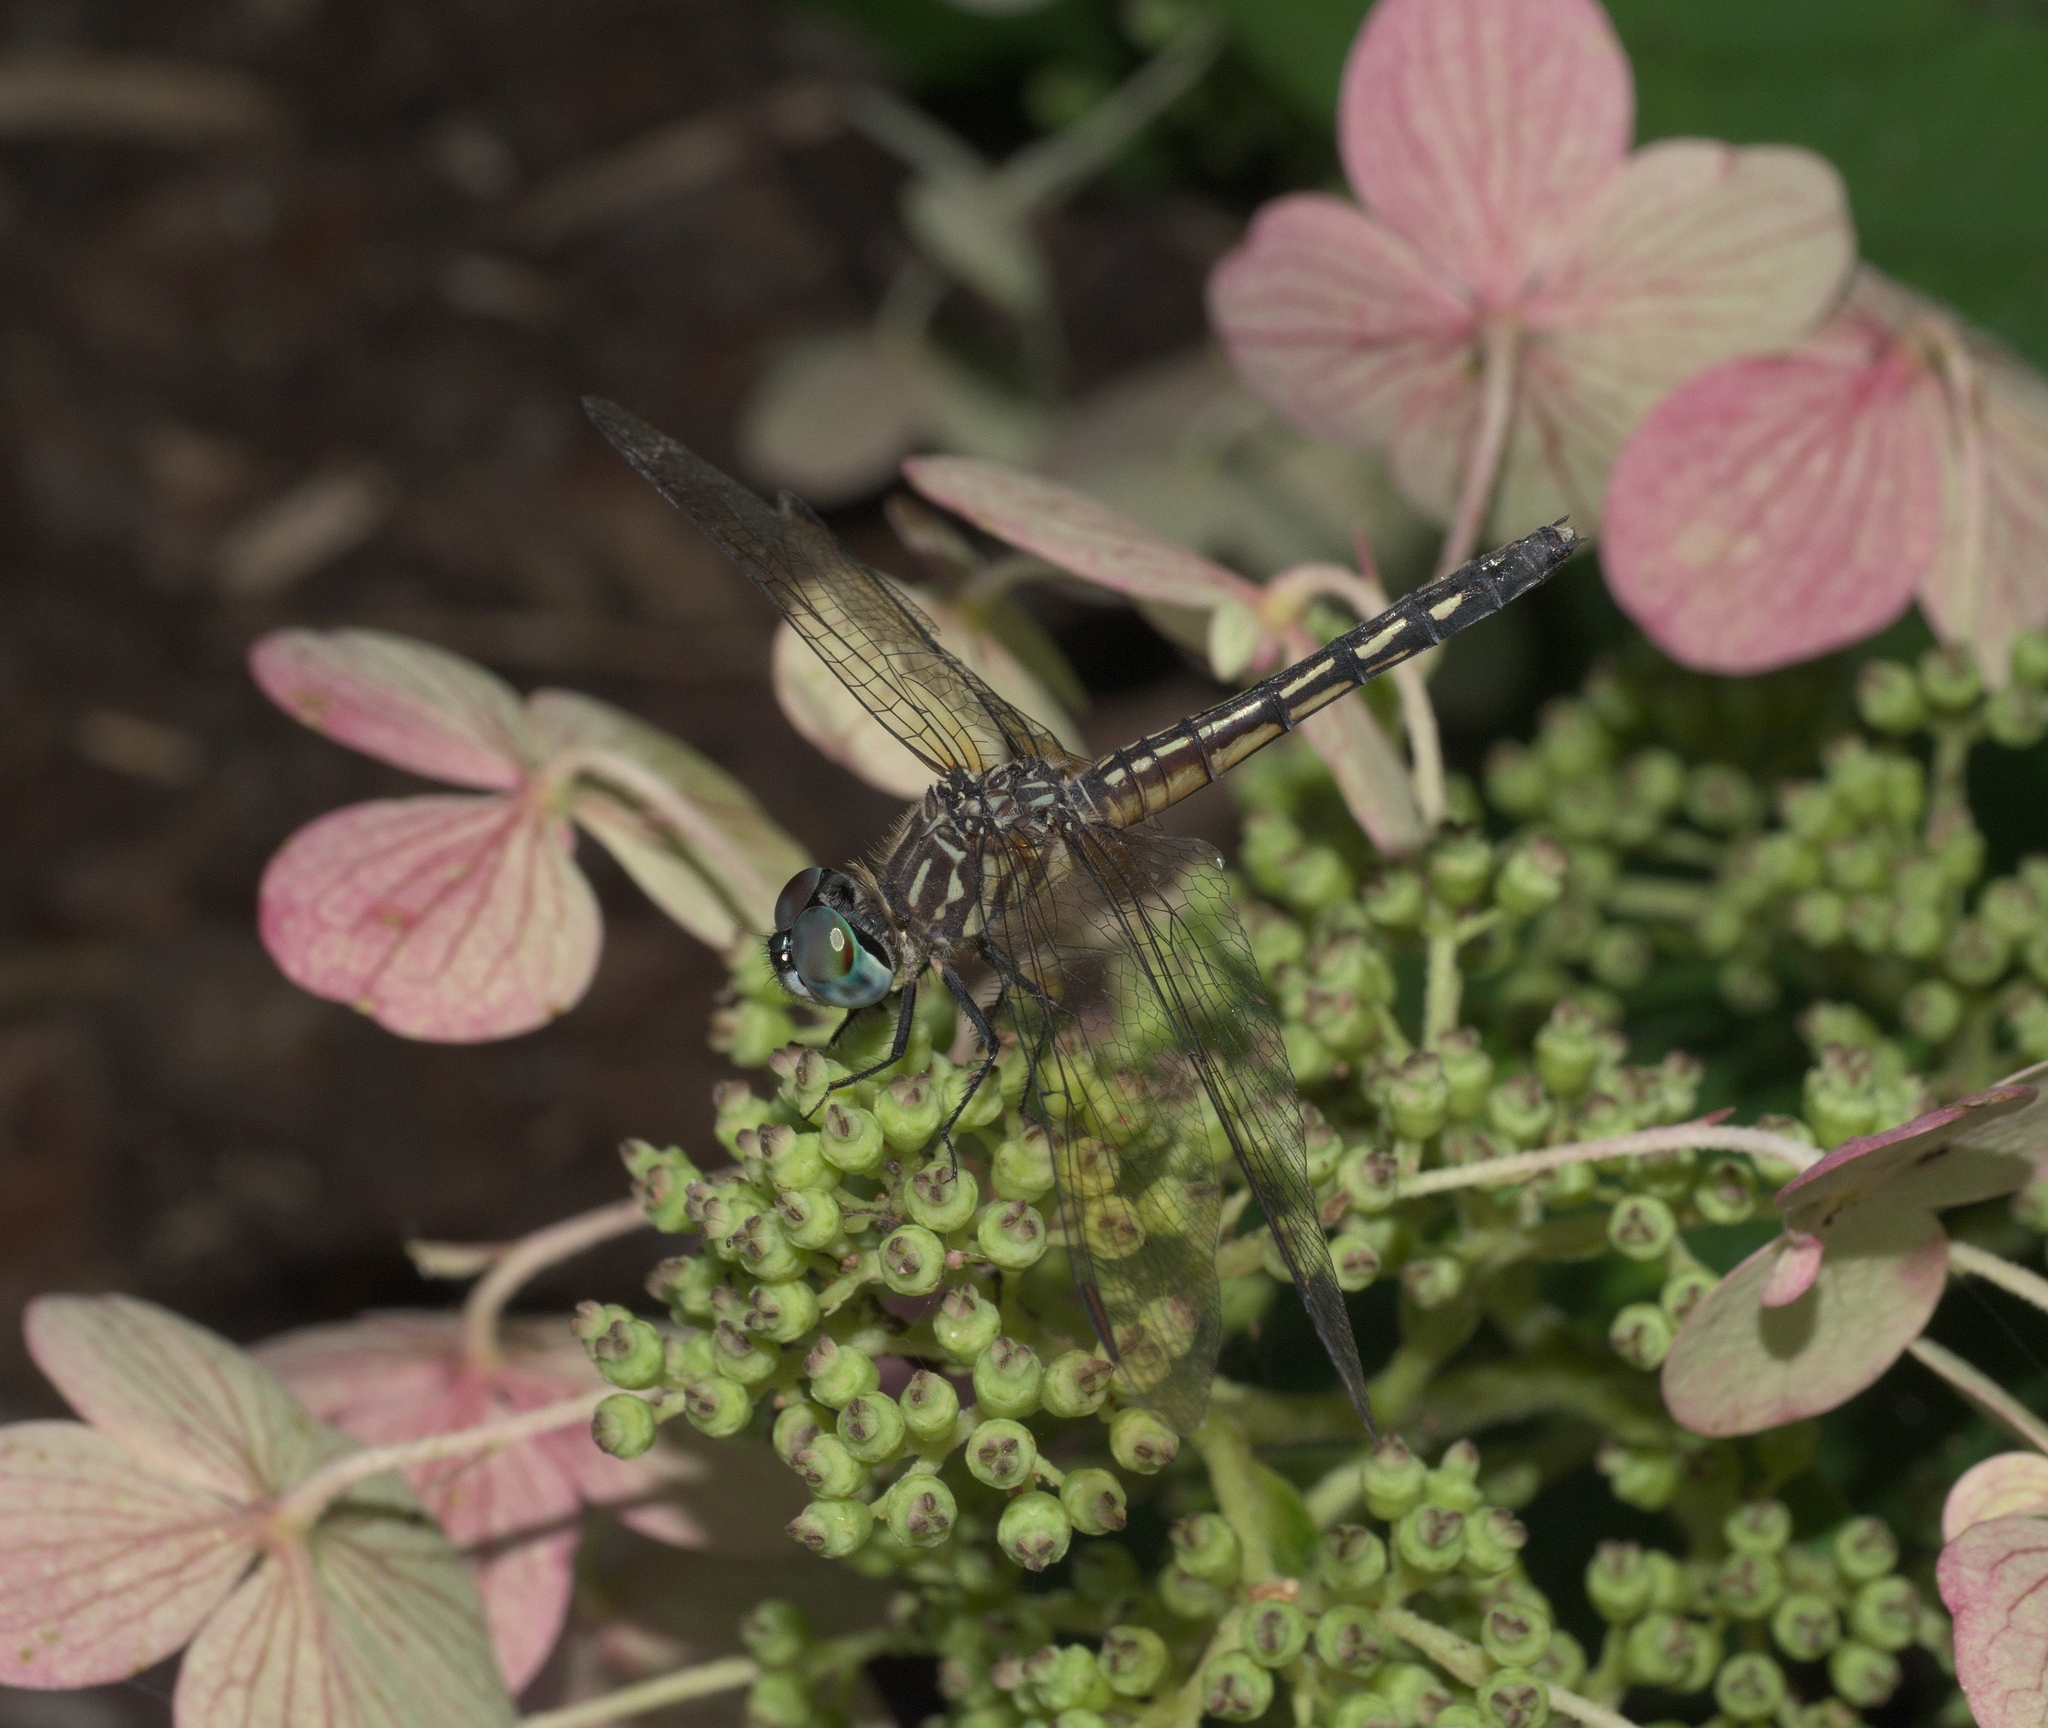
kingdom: Animalia
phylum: Arthropoda
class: Insecta
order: Odonata
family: Libellulidae
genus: Pachydiplax
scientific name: Pachydiplax longipennis
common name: Blue dasher
